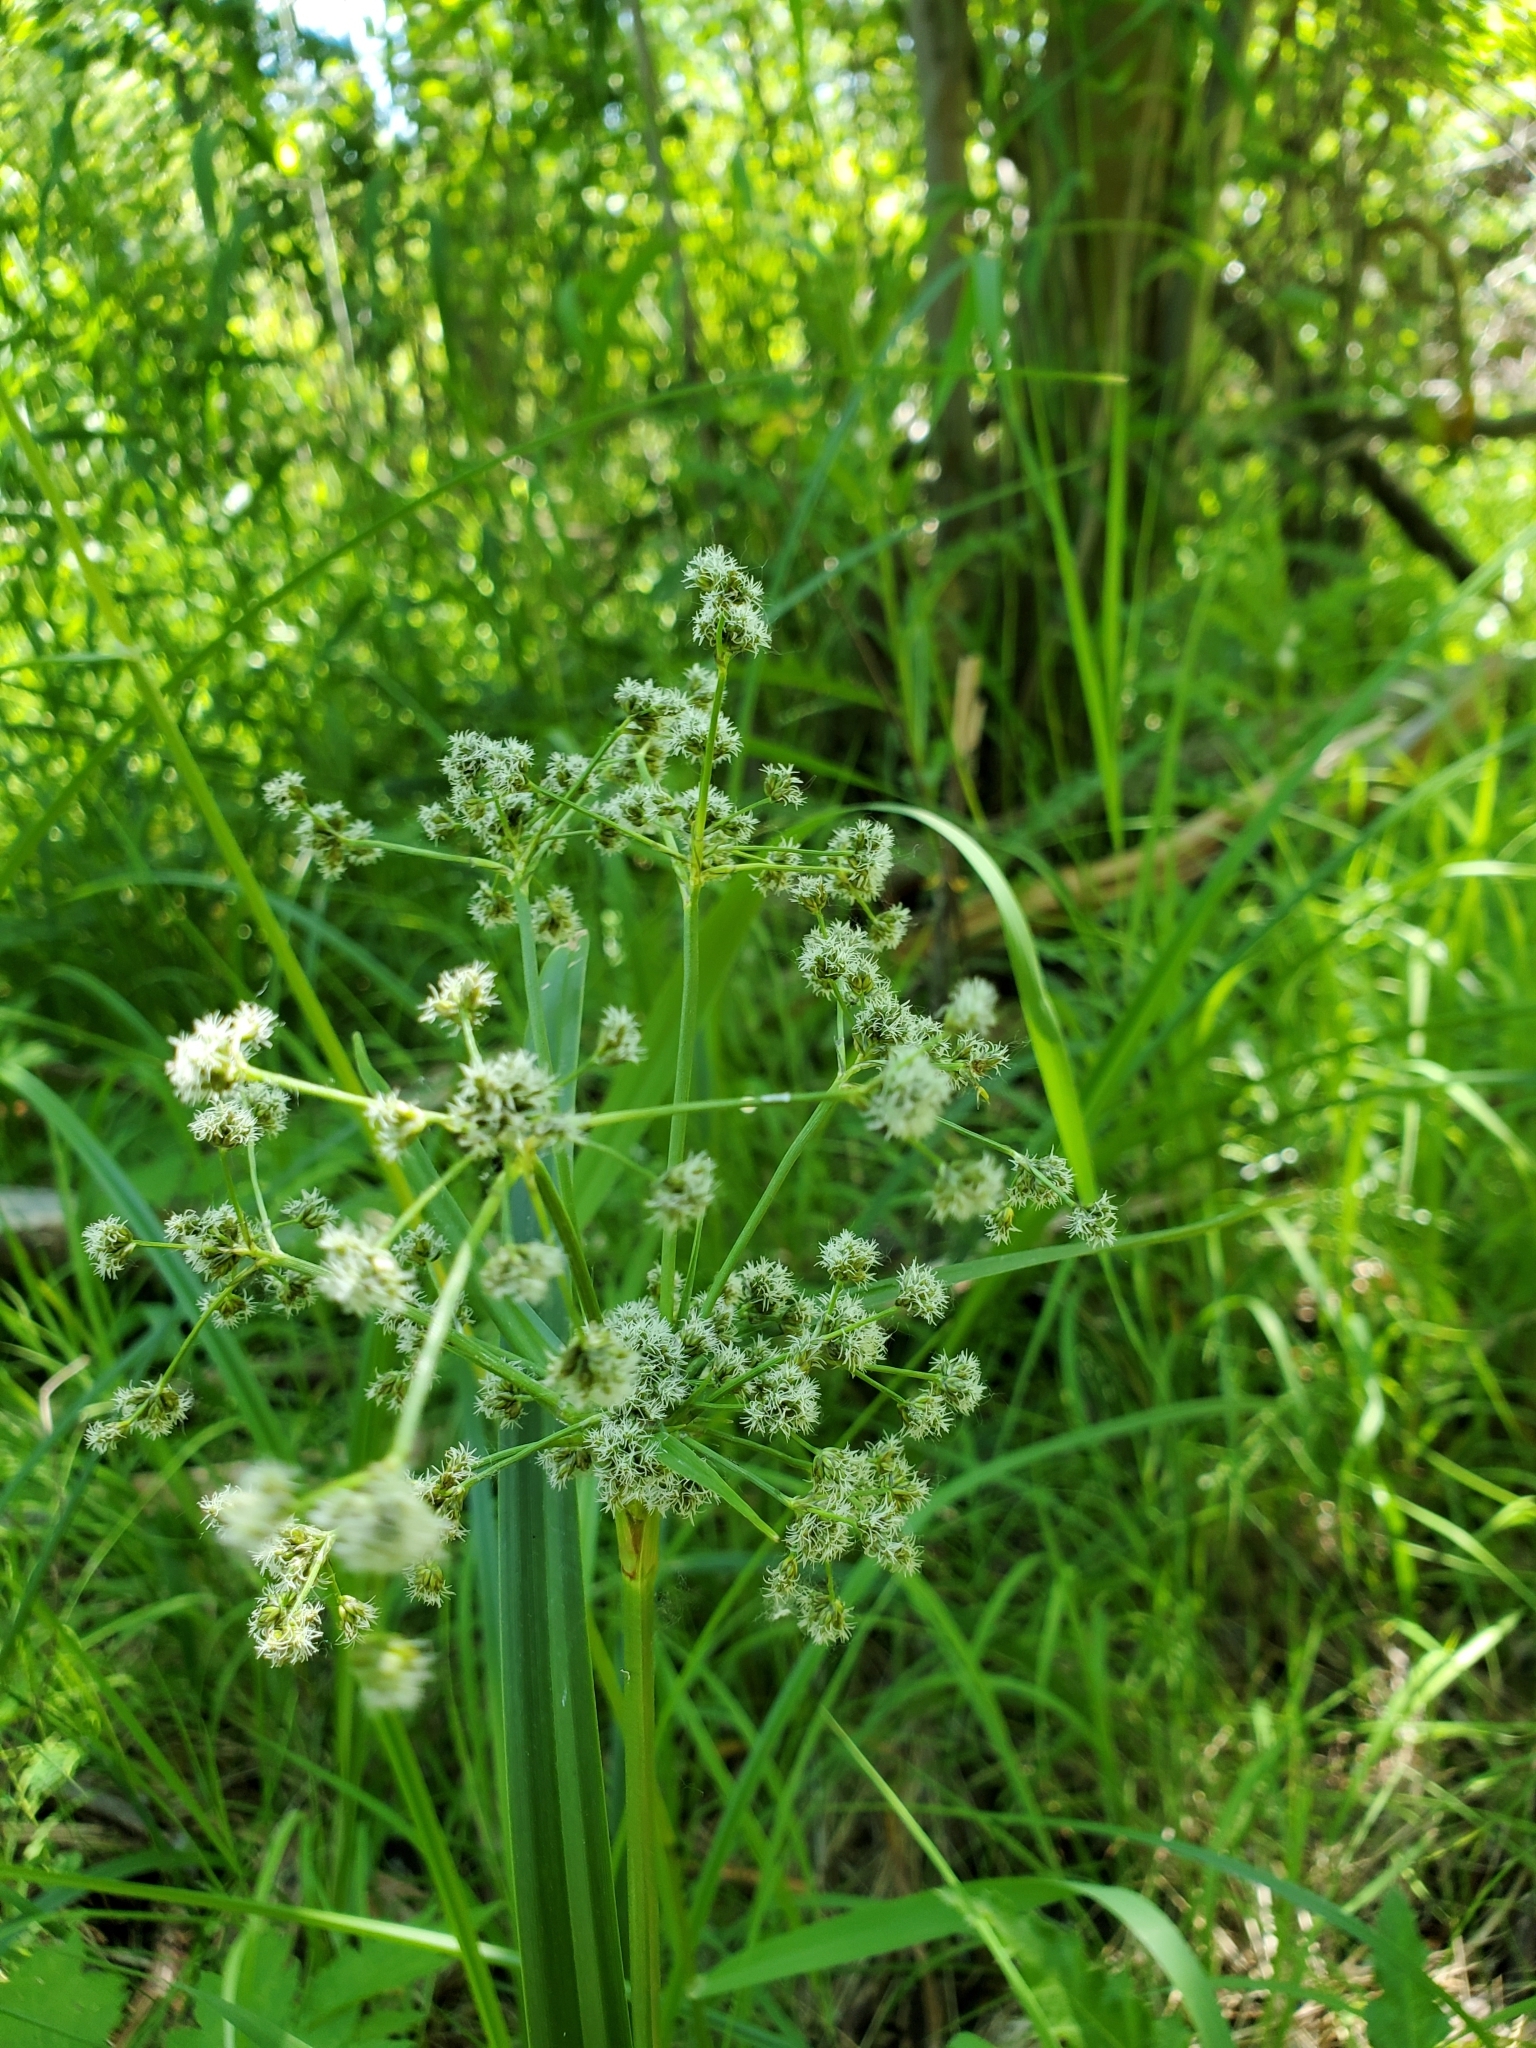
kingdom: Plantae
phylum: Tracheophyta
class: Liliopsida
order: Poales
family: Cyperaceae
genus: Scirpus
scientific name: Scirpus microcarpus
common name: Panicled bulrush
